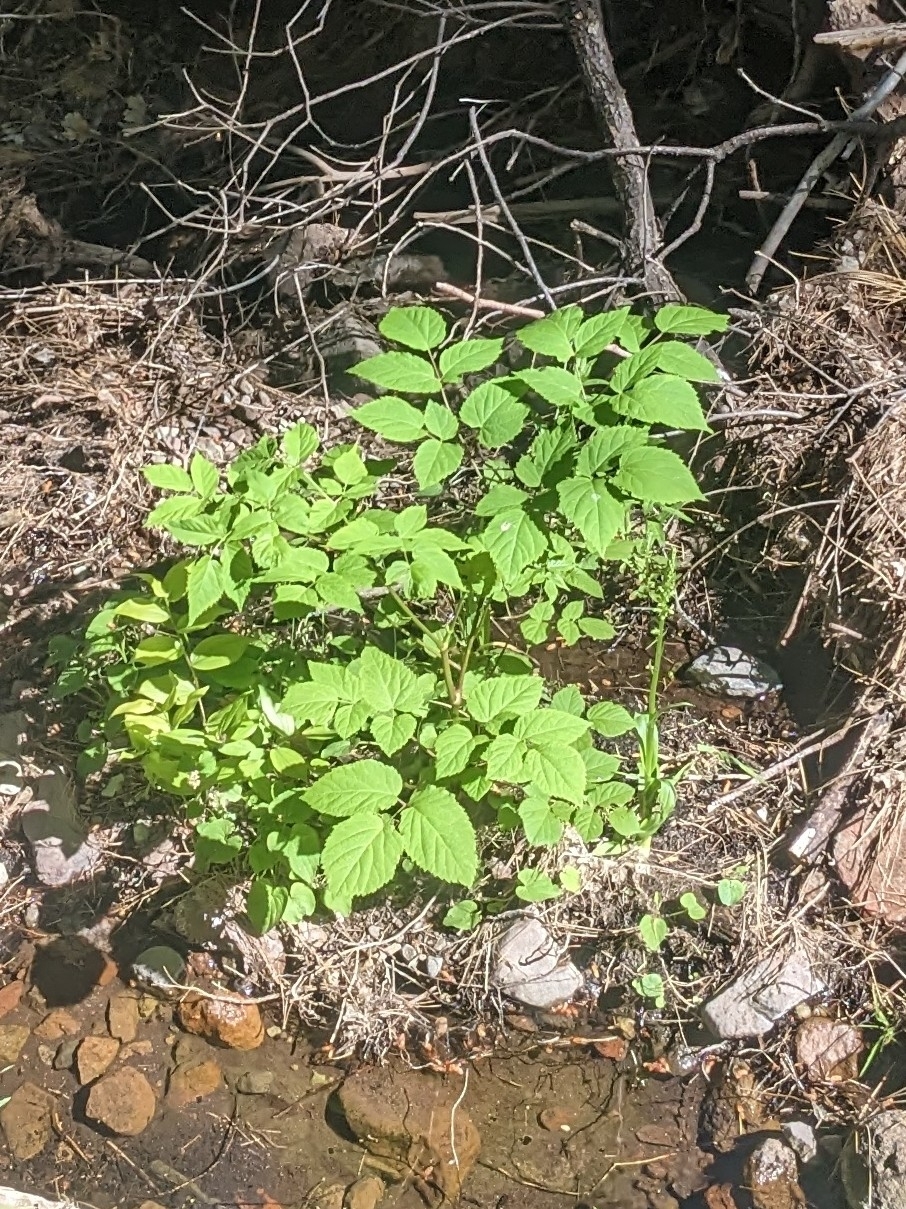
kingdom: Plantae
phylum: Tracheophyta
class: Magnoliopsida
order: Apiales
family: Araliaceae
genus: Aralia
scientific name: Aralia bicrenata
